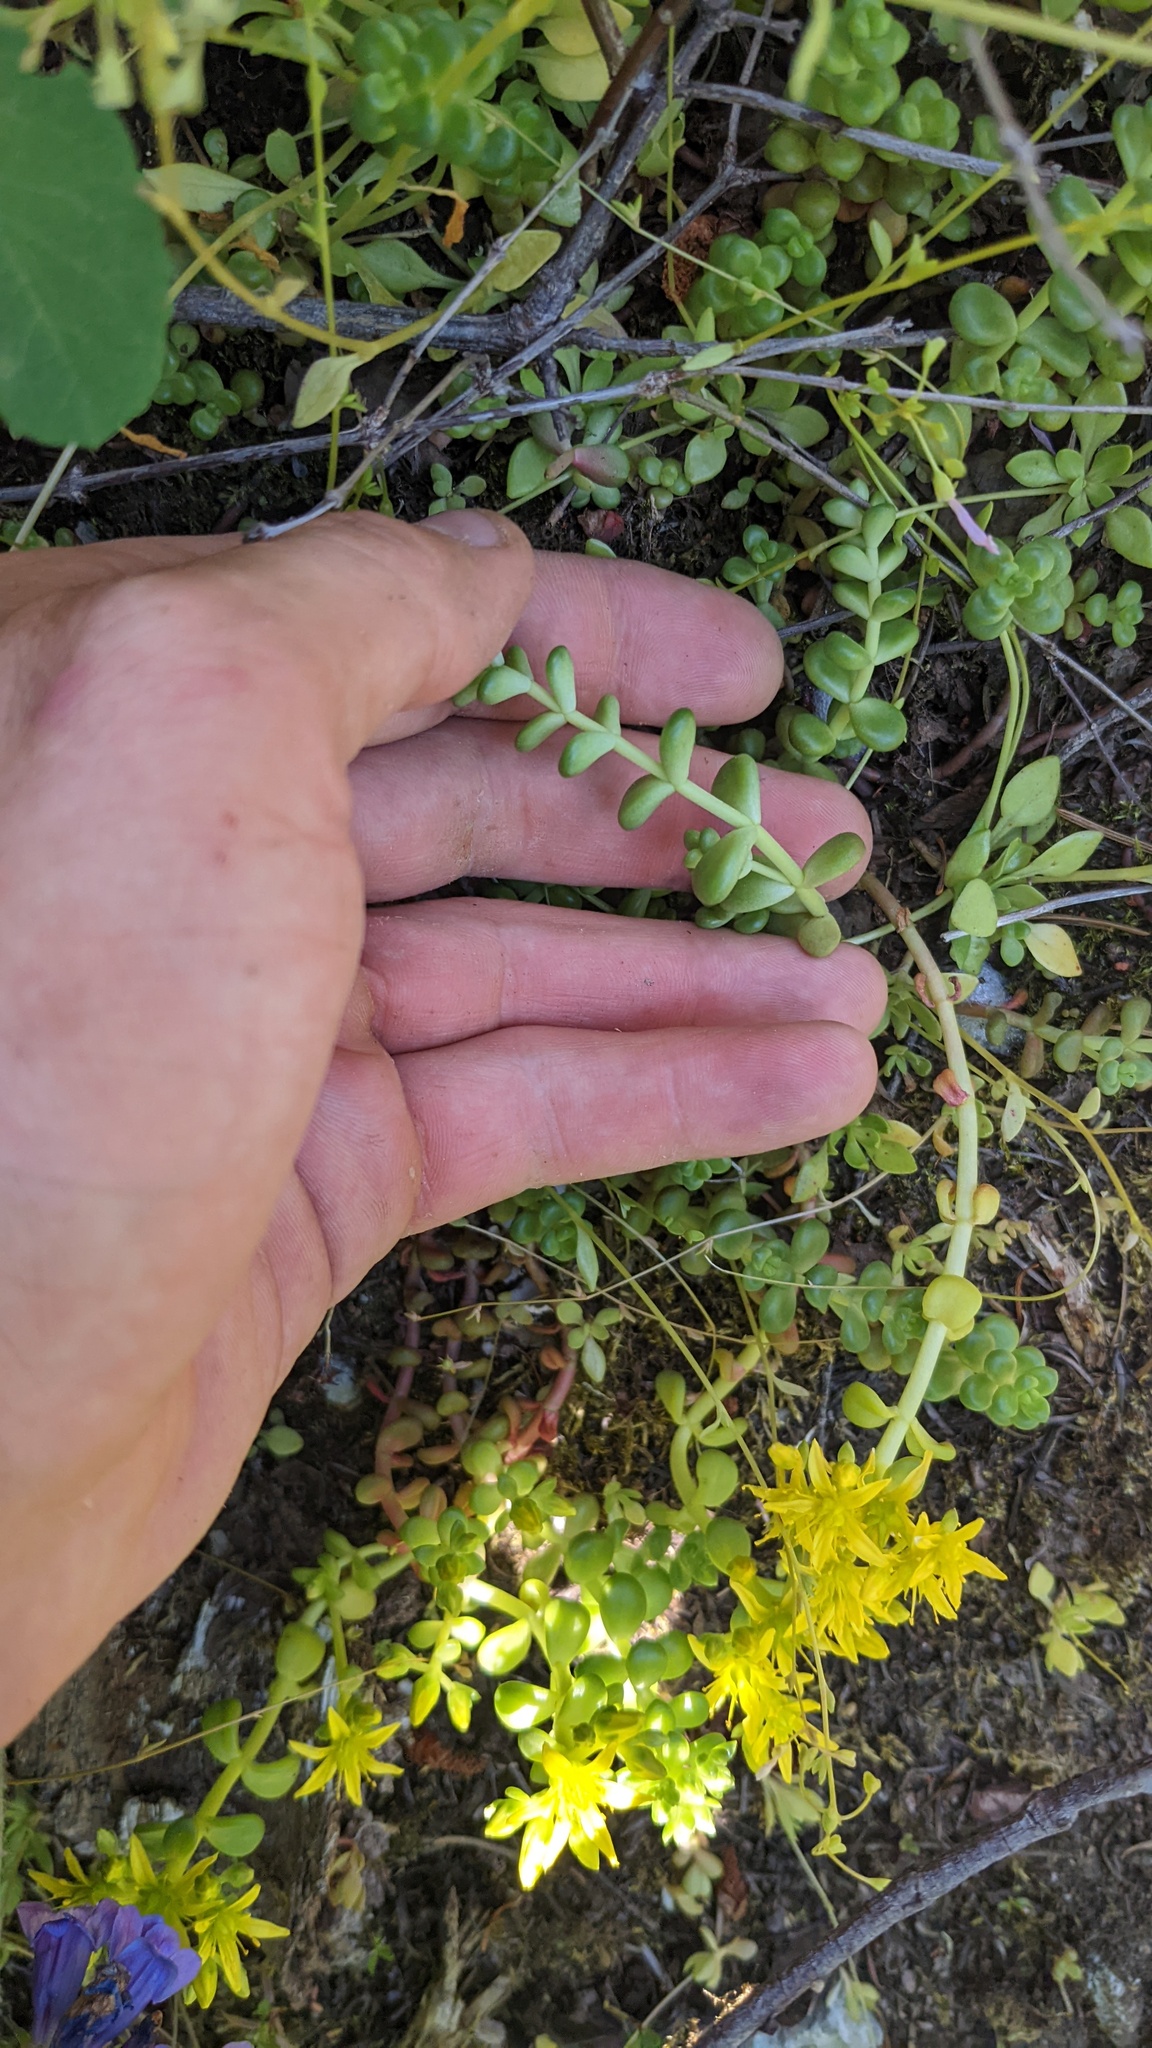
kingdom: Plantae
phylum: Tracheophyta
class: Magnoliopsida
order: Saxifragales
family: Crassulaceae
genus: Sedum
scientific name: Sedum divergens
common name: Cascade stonecrop
